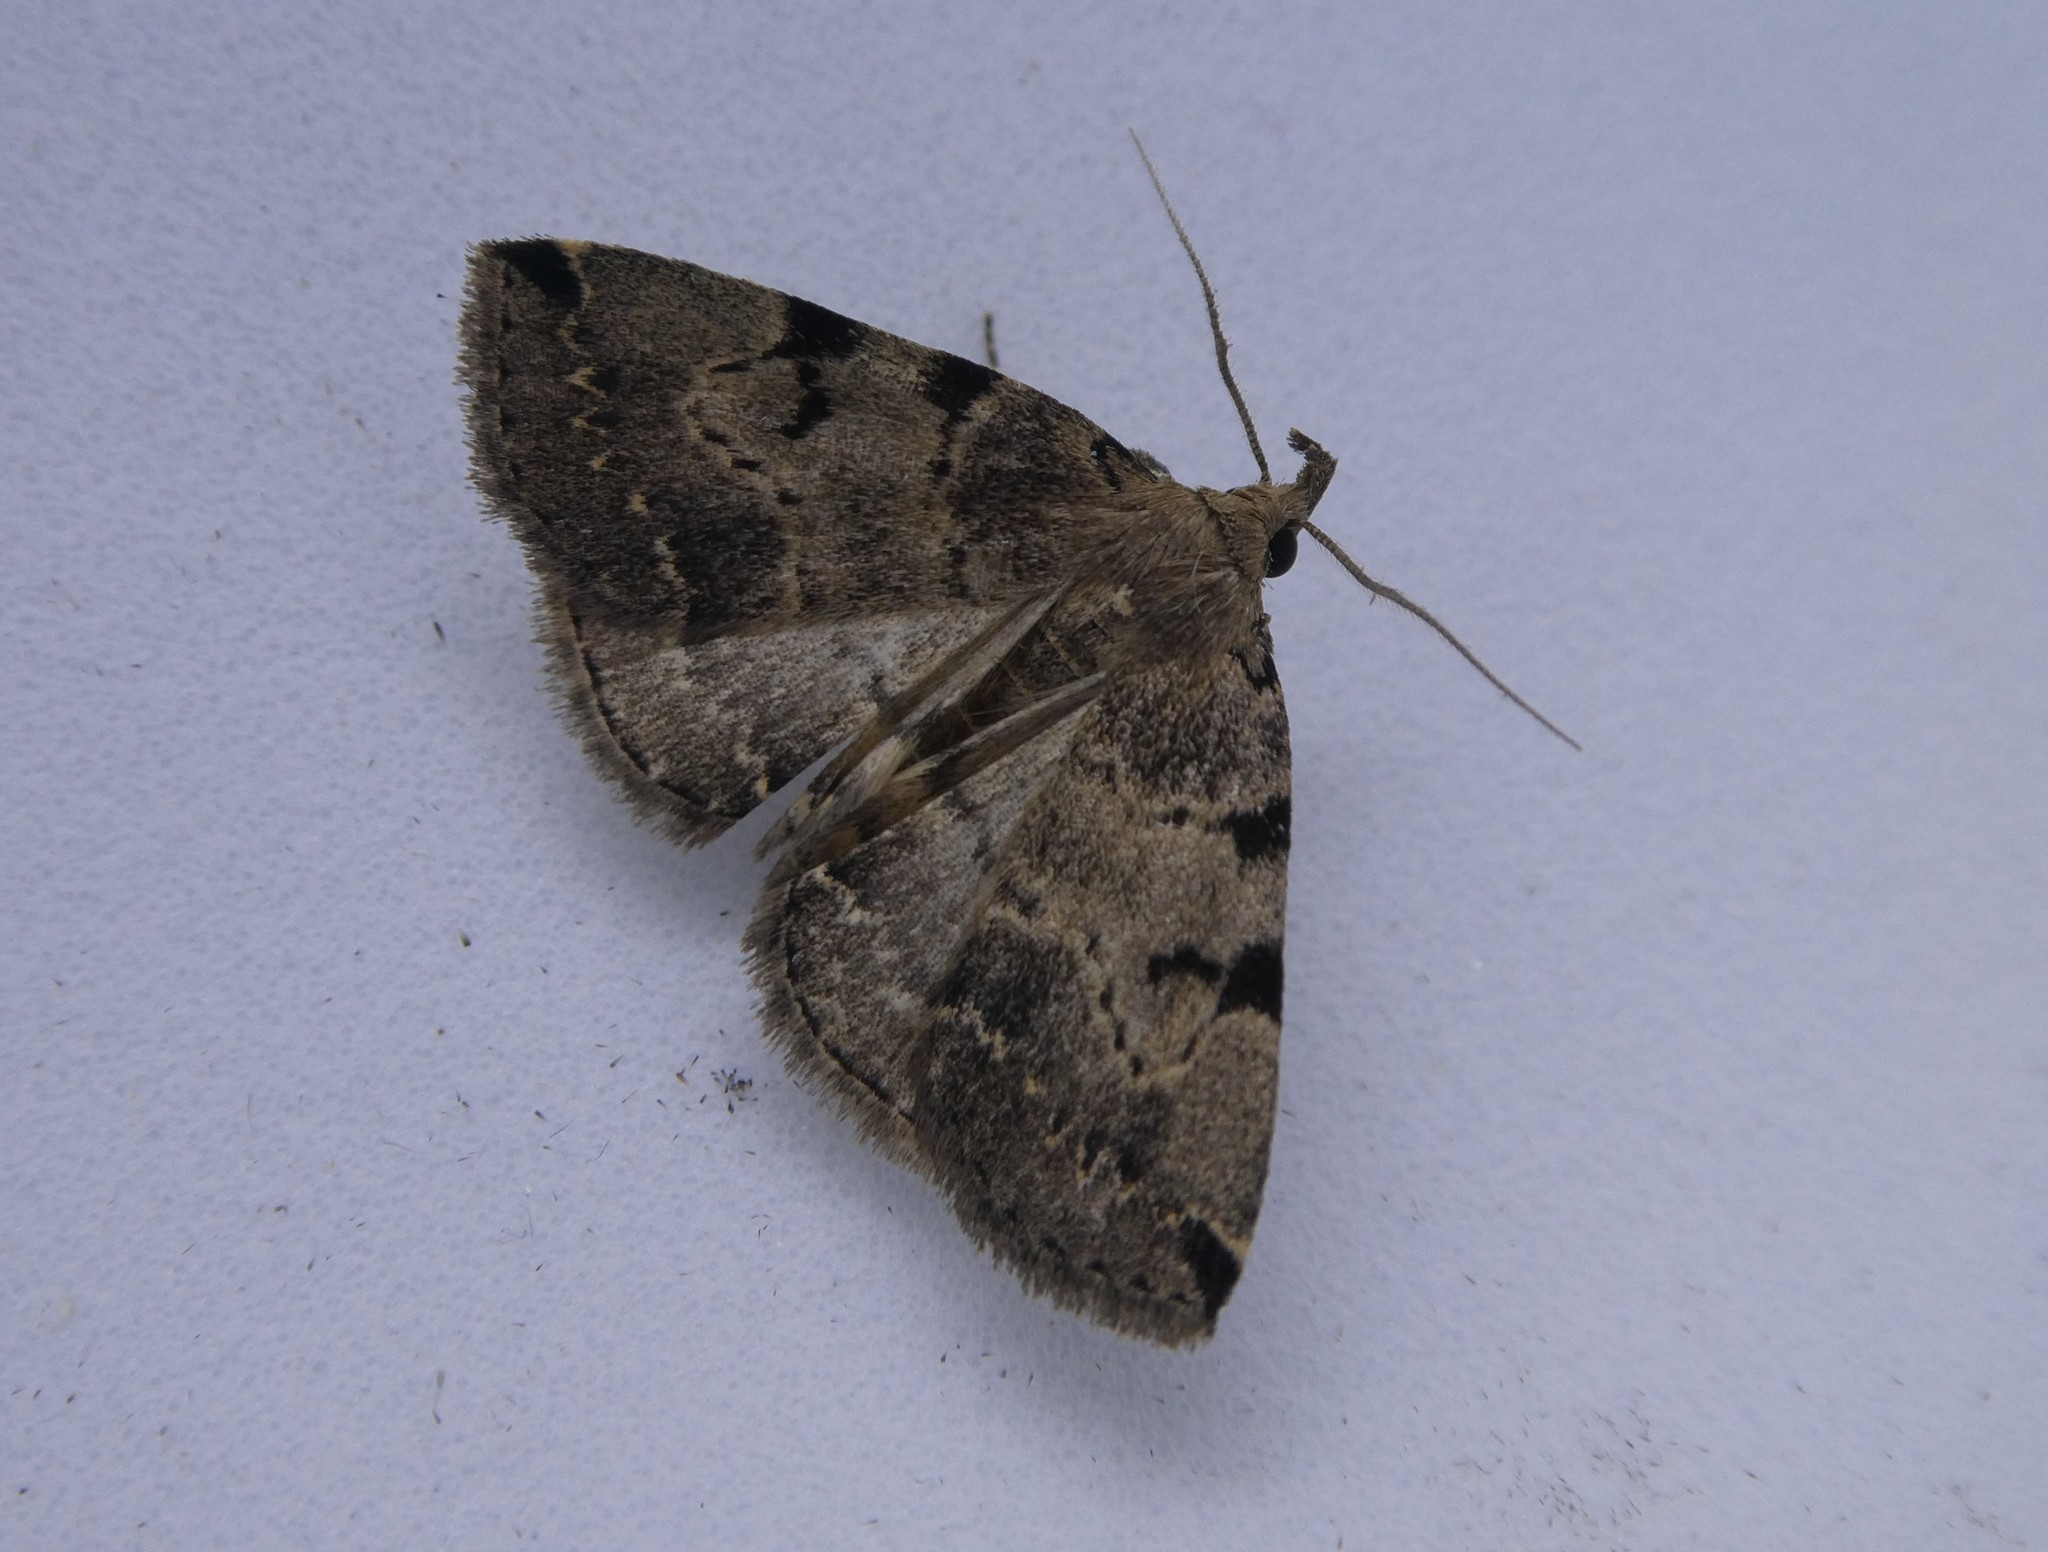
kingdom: Animalia
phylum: Arthropoda
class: Insecta
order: Lepidoptera
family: Erebidae
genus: Zanclognatha
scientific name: Zanclognatha lituralis
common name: Lettered fan-foot
